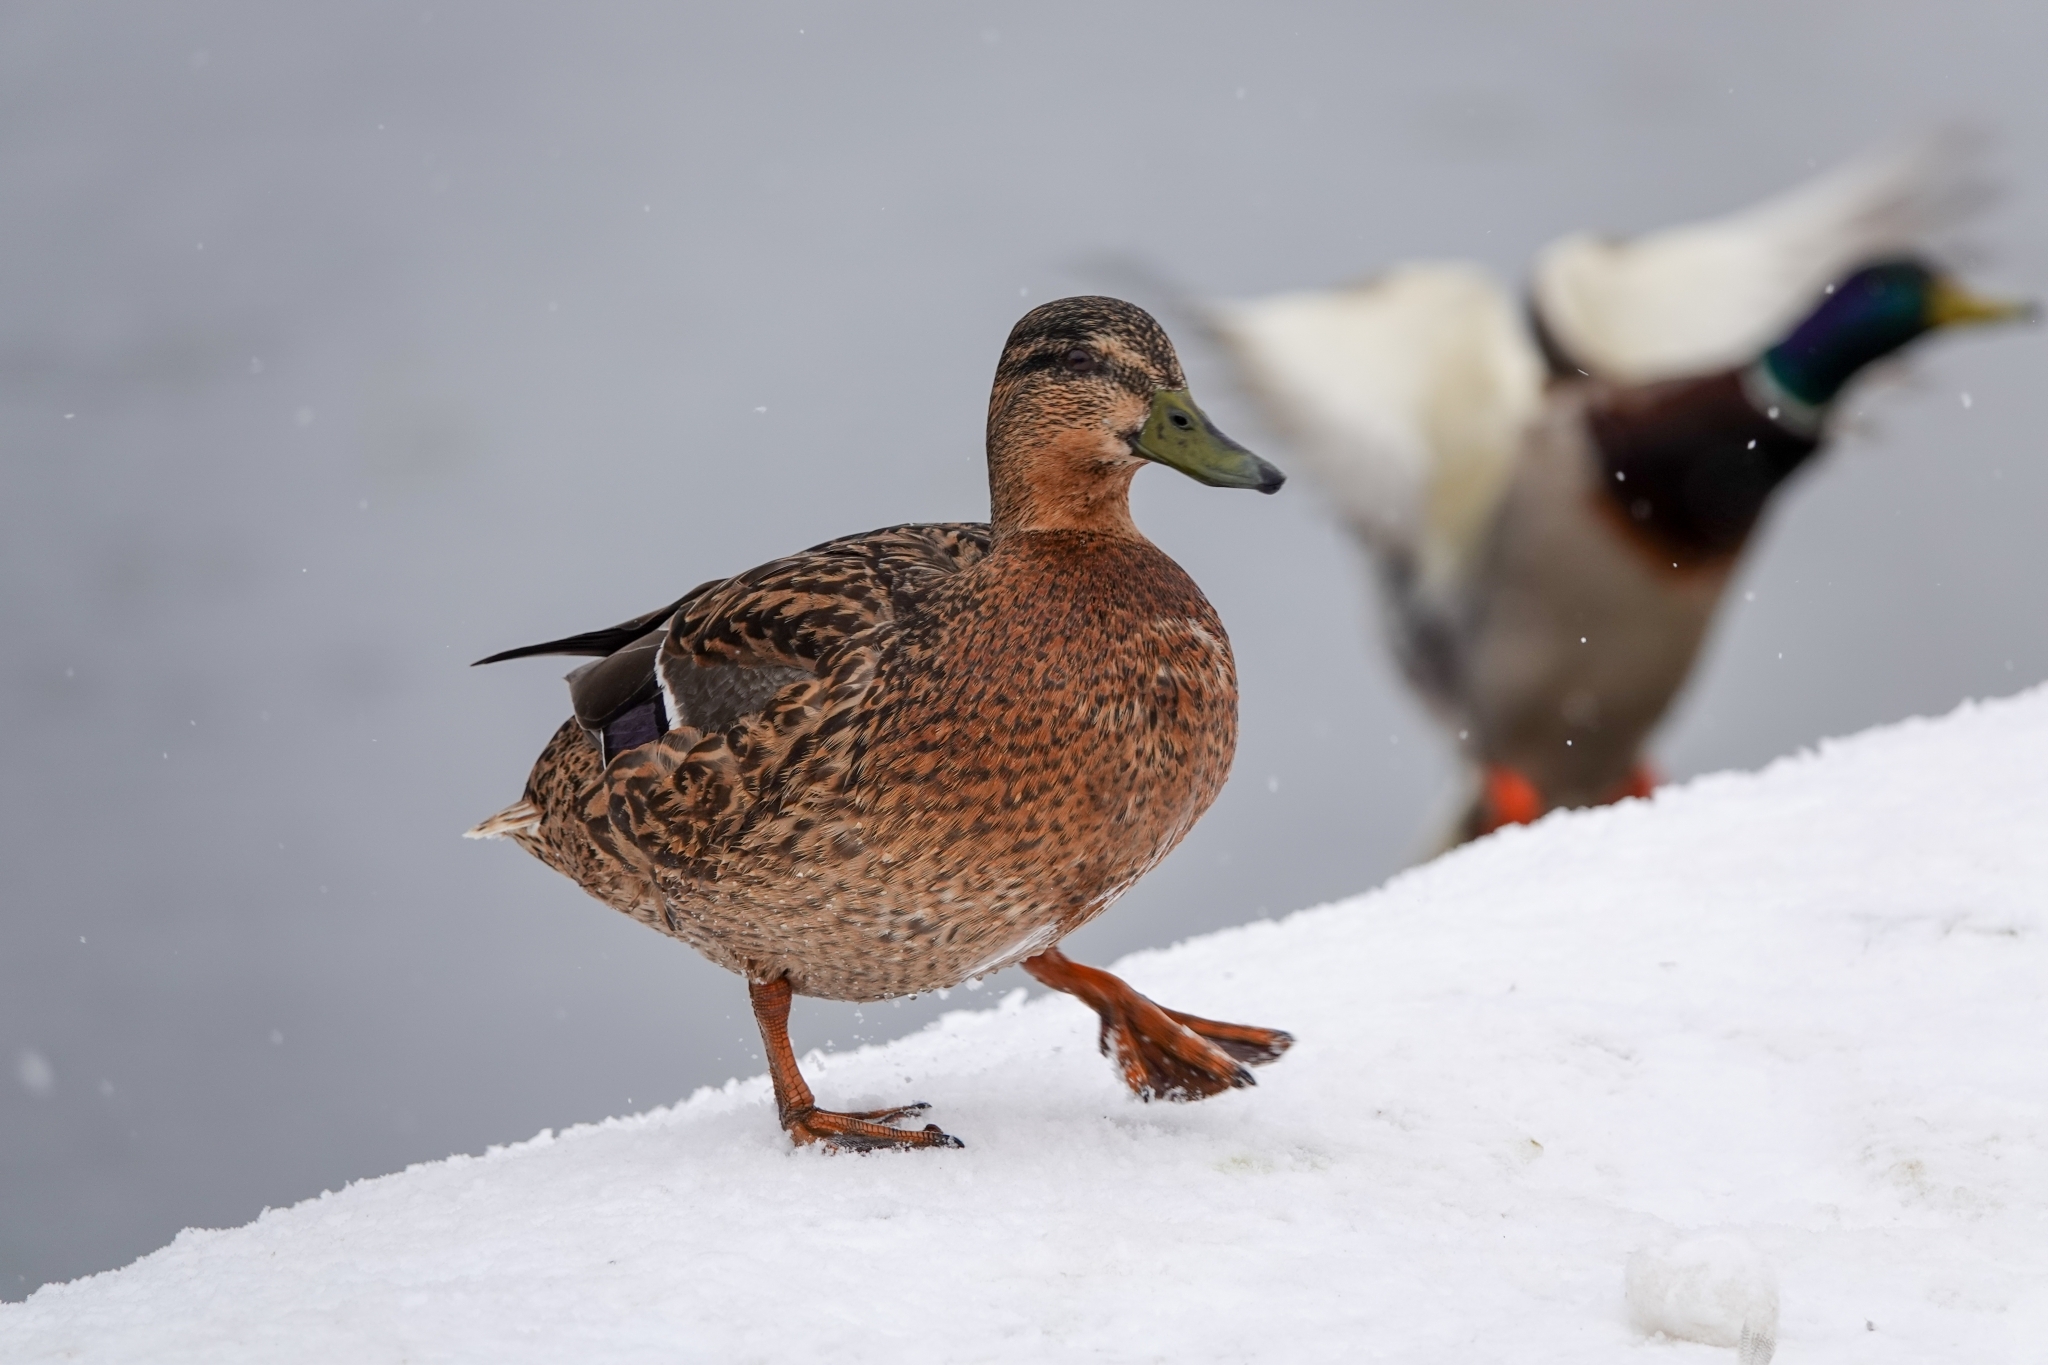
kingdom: Animalia
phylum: Chordata
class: Aves
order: Anseriformes
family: Anatidae
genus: Anas
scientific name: Anas platyrhynchos
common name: Mallard
